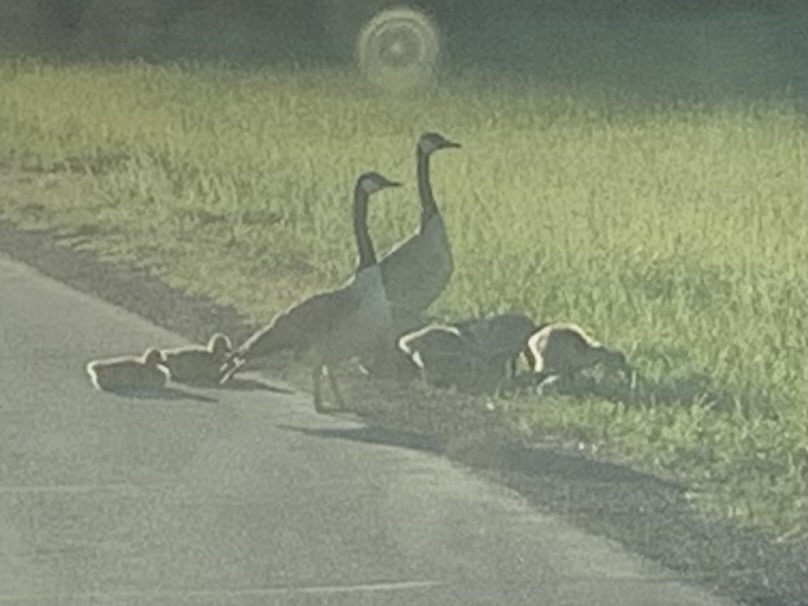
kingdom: Animalia
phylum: Chordata
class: Aves
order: Anseriformes
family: Anatidae
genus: Branta
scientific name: Branta canadensis
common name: Canada goose
